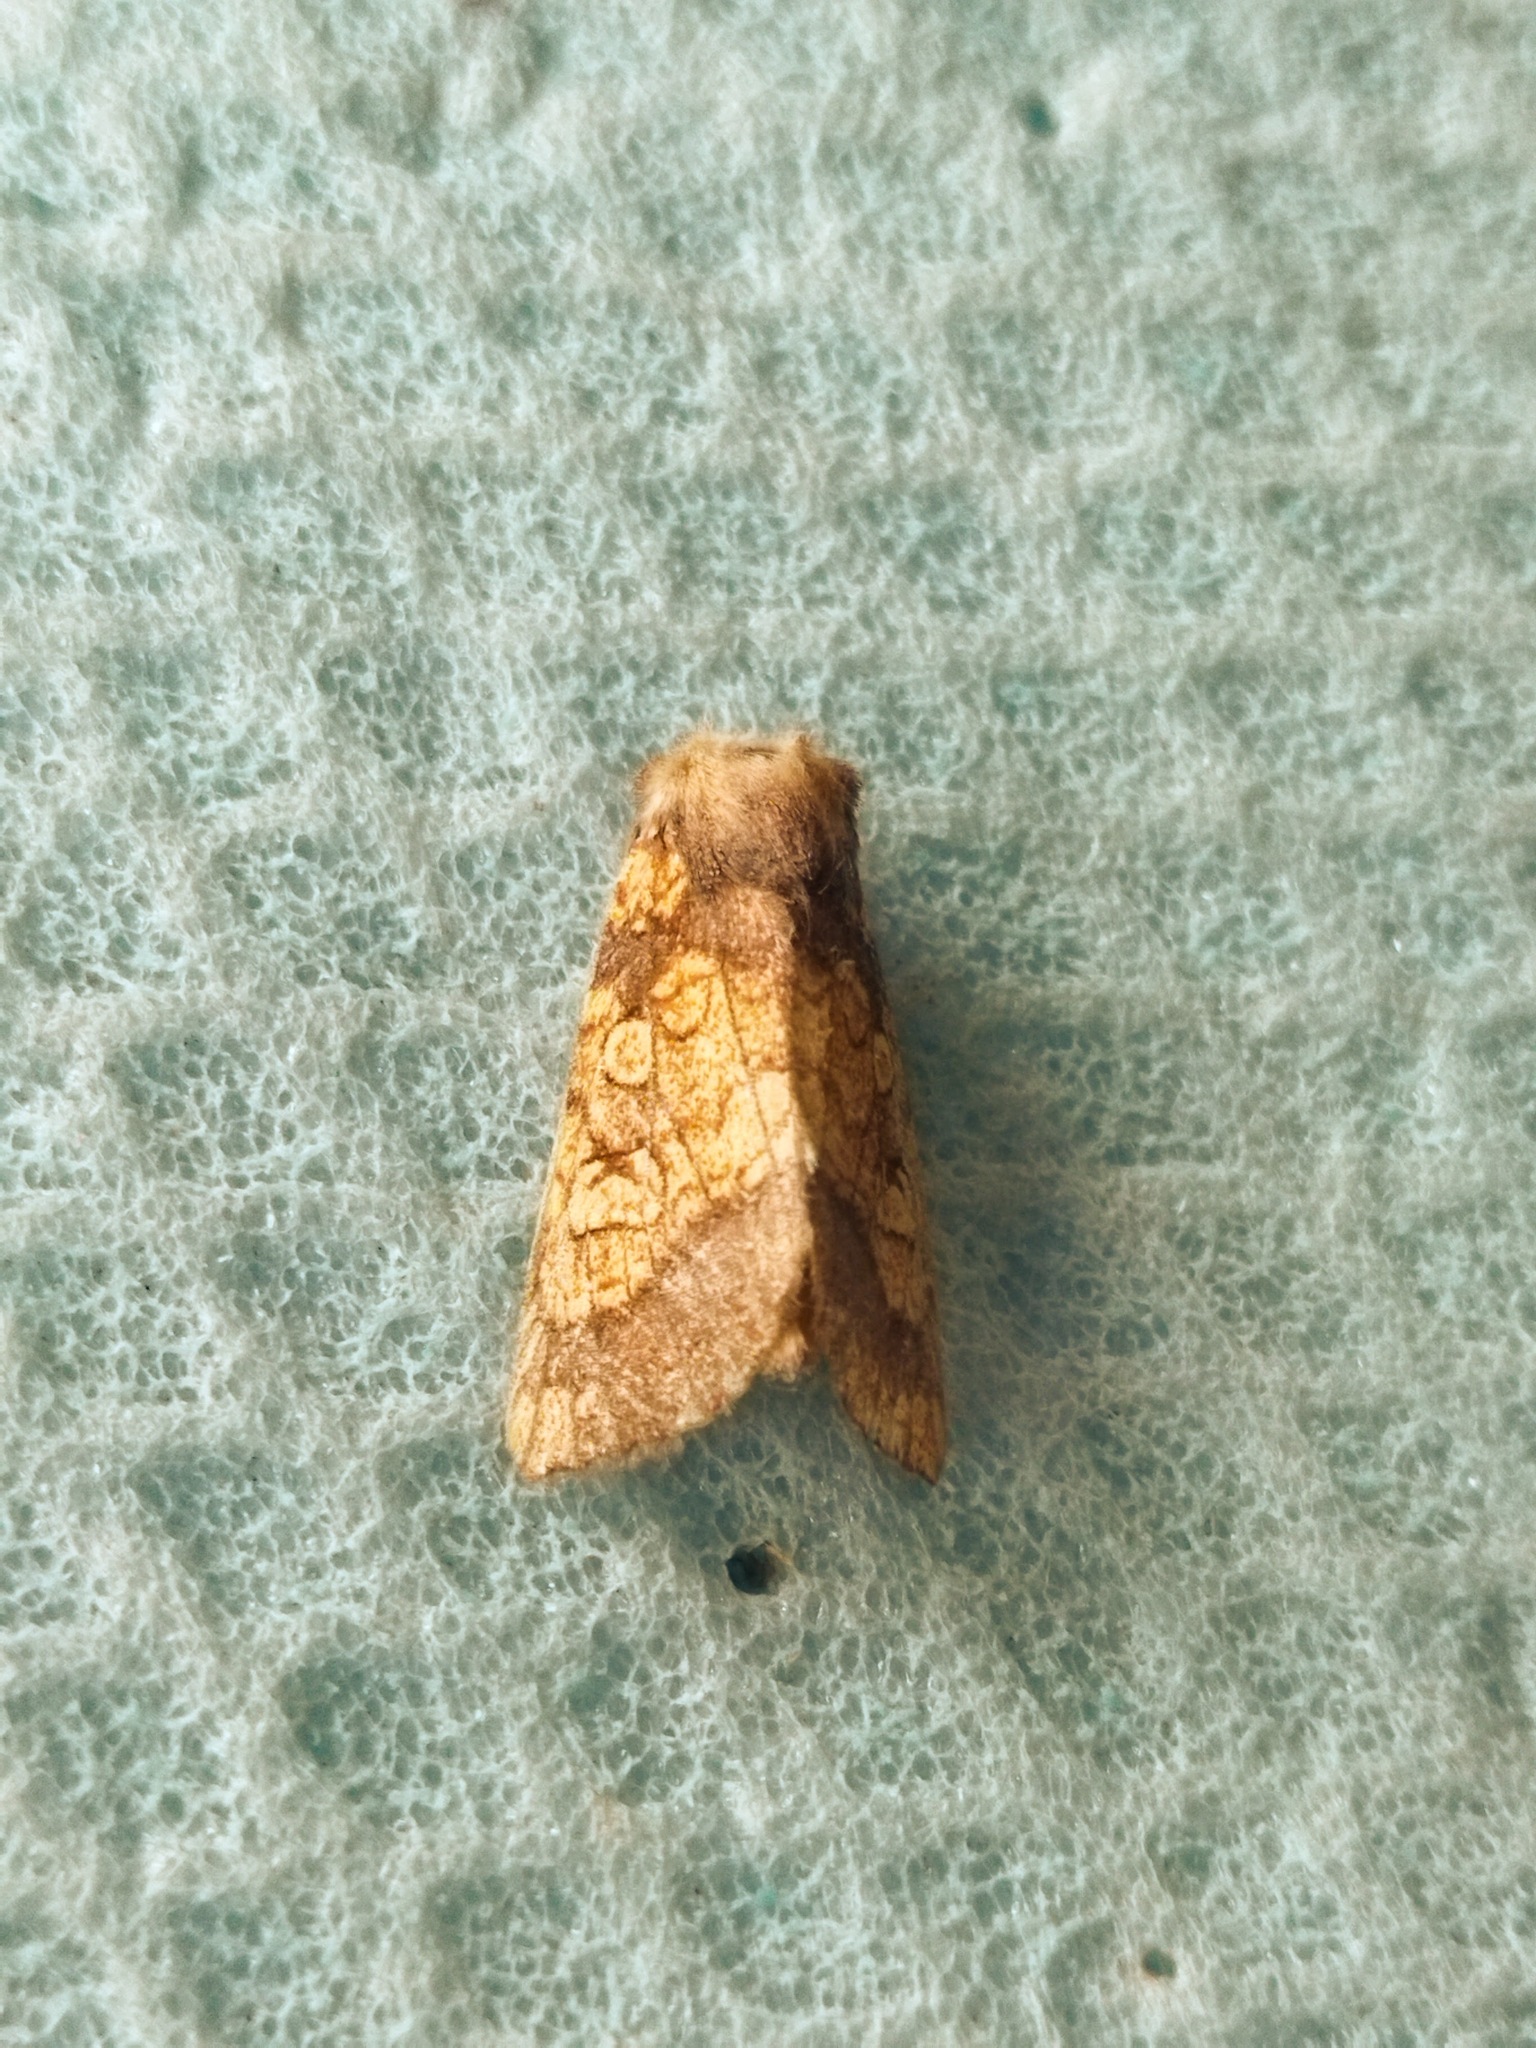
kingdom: Animalia
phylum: Arthropoda
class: Insecta
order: Lepidoptera
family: Noctuidae
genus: Gortyna
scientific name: Gortyna flavago
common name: Frosted orange
